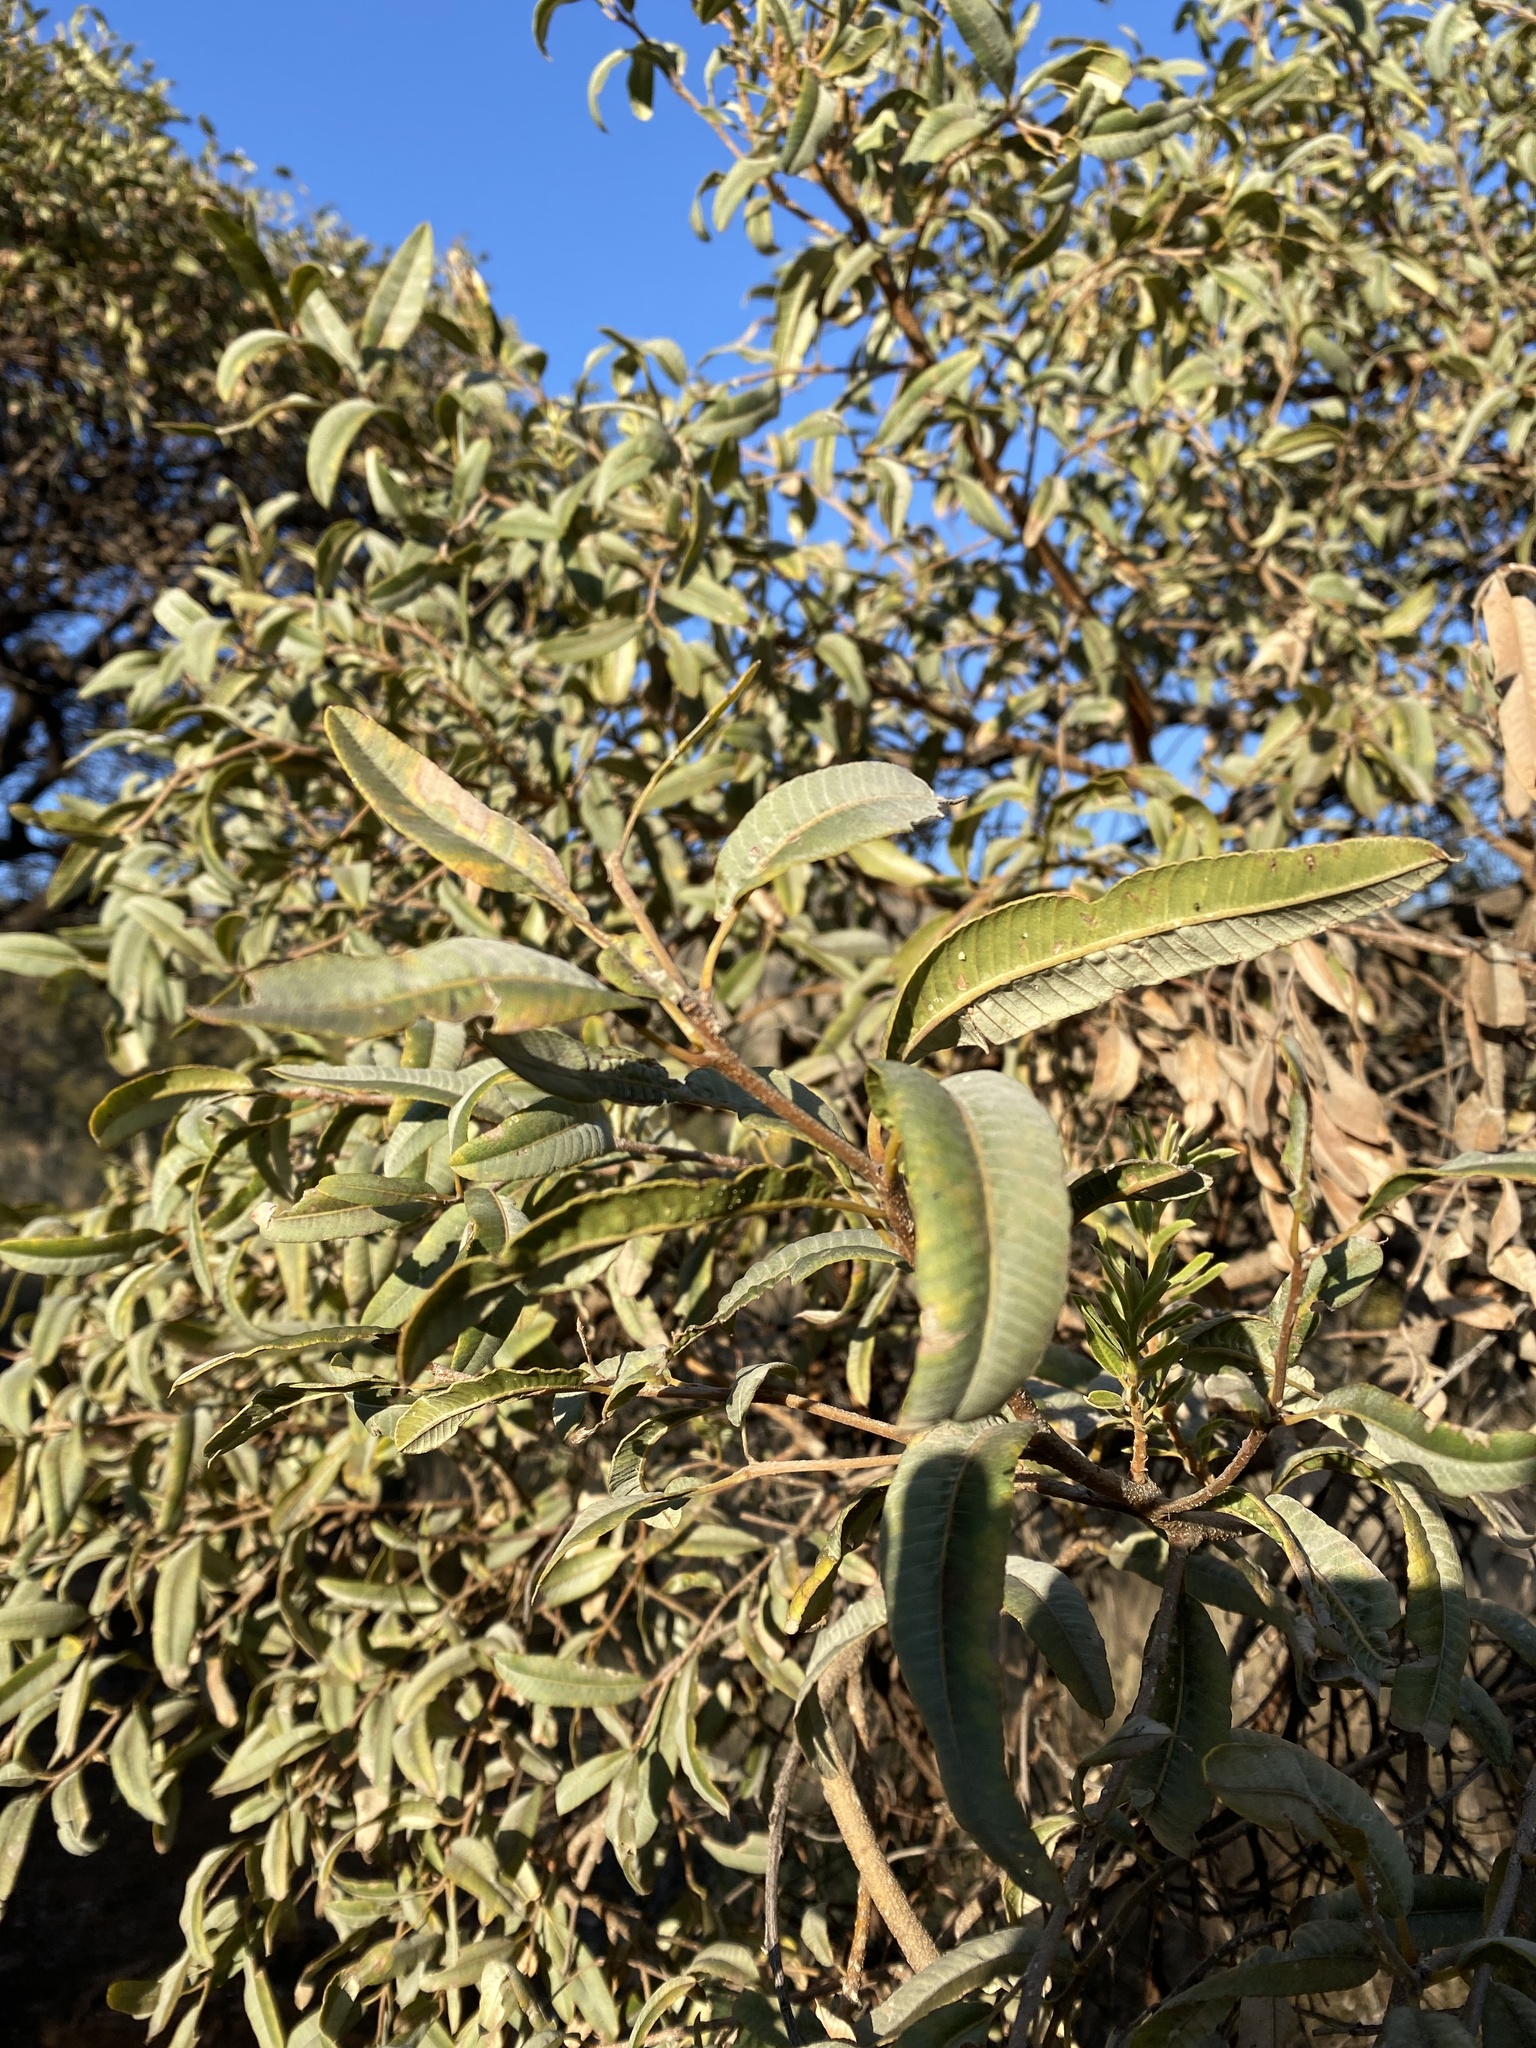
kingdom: Plantae
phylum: Tracheophyta
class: Magnoliopsida
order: Sapindales
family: Anacardiaceae
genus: Ozoroa
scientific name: Ozoroa paniculosa
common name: Bushveld ozoroa
